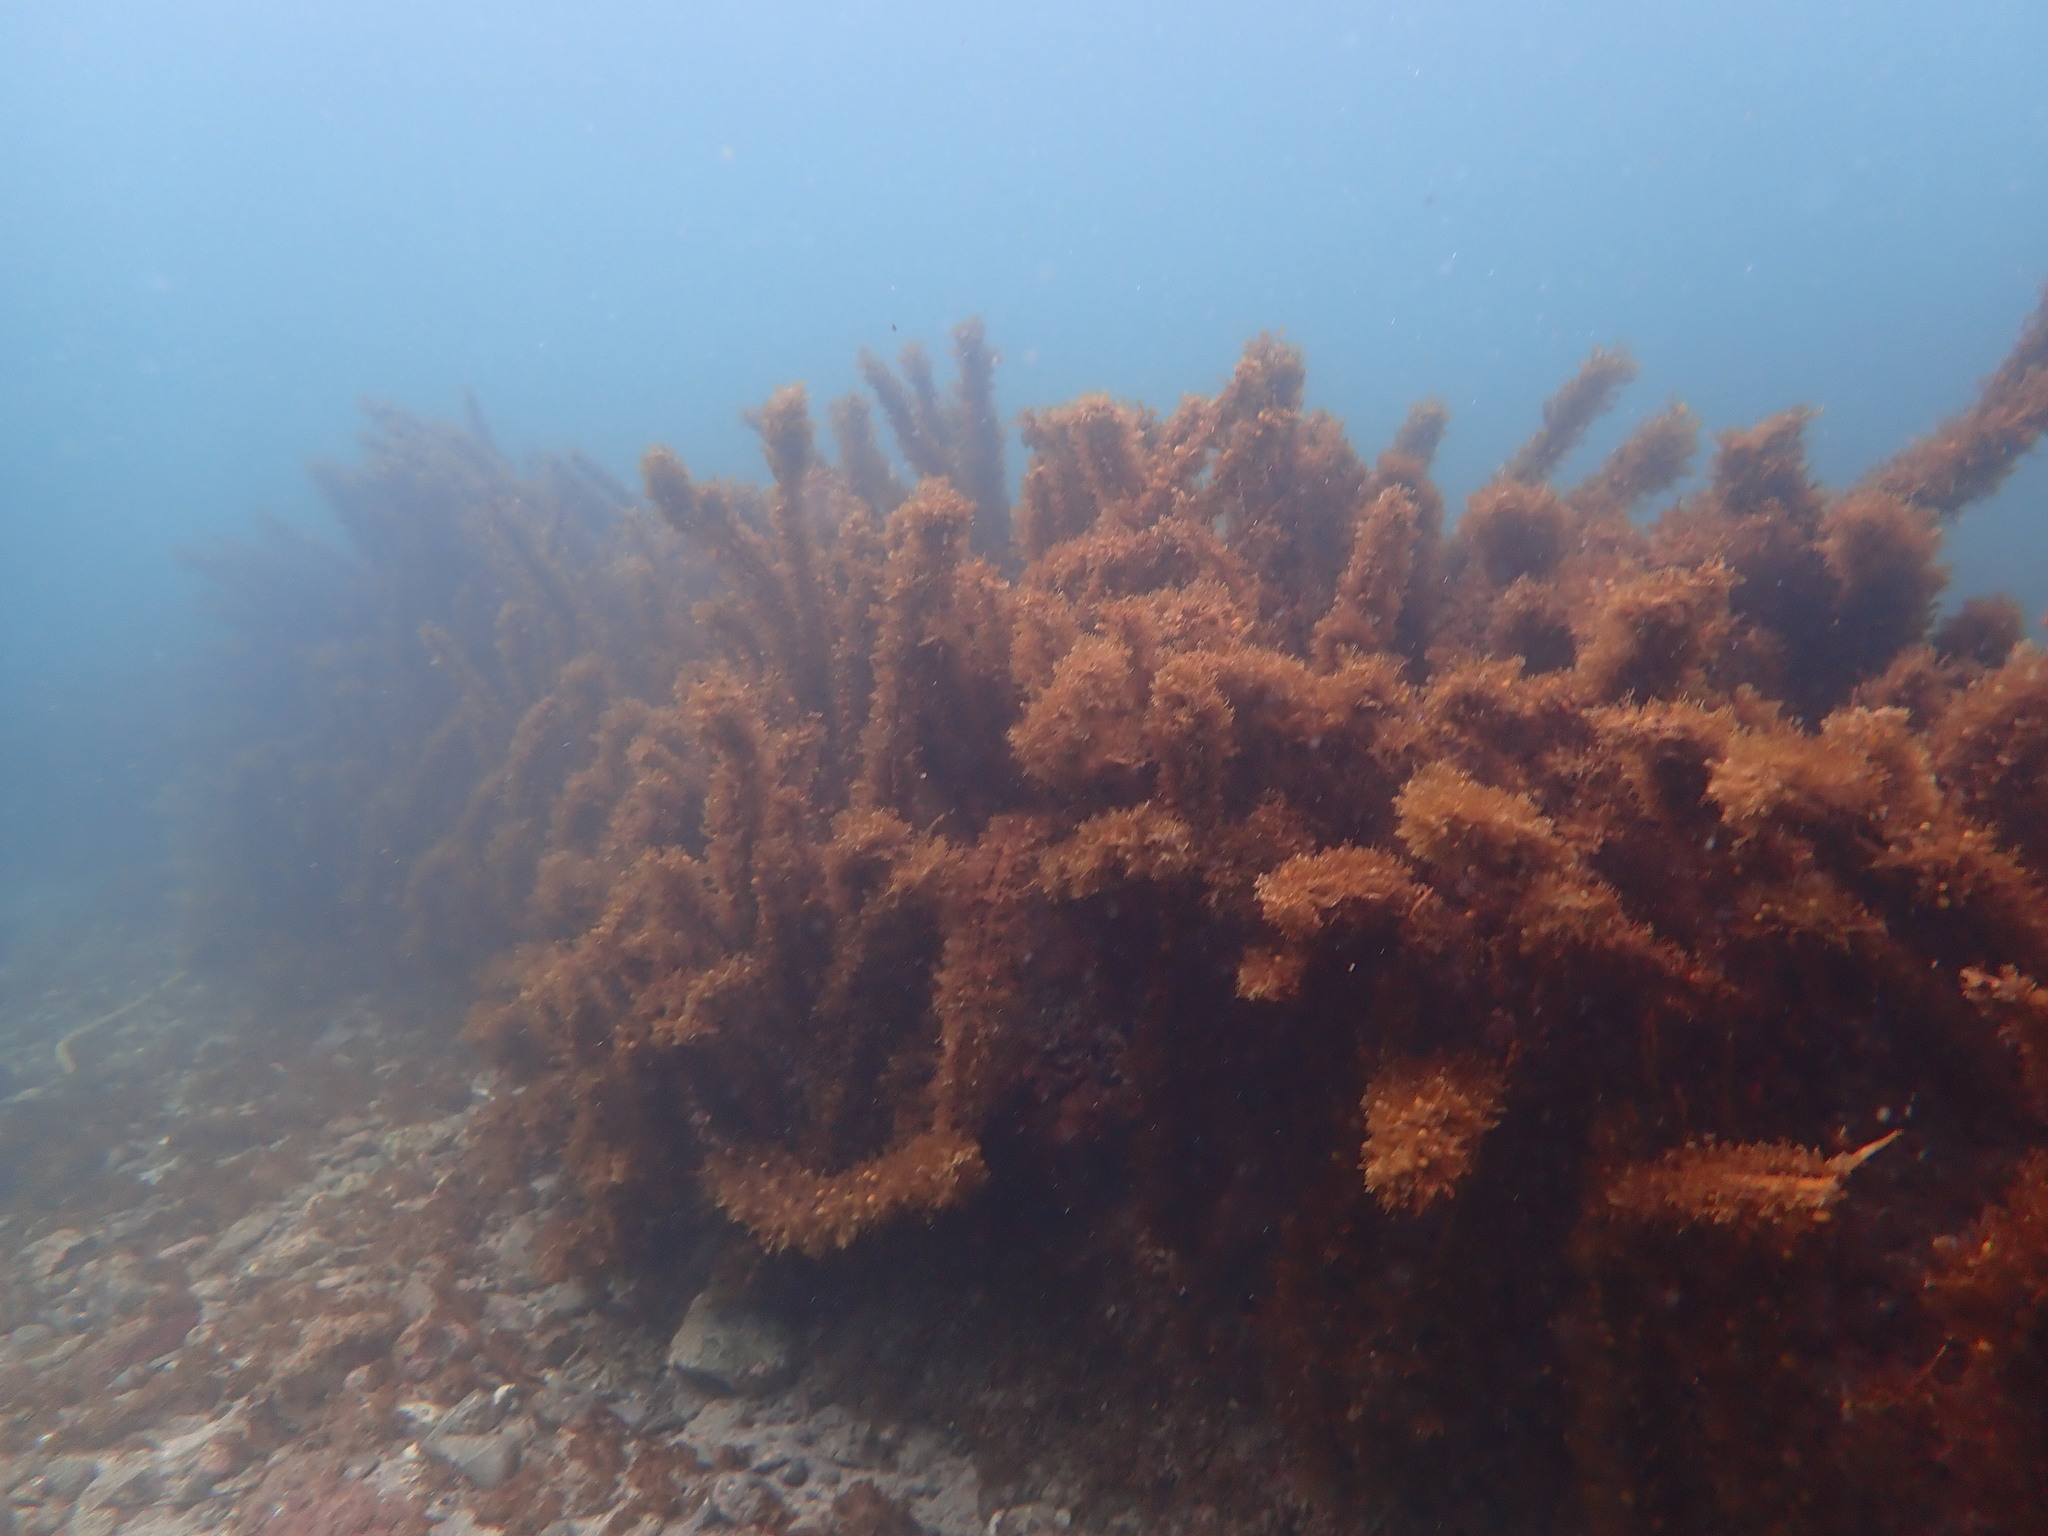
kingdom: Chromista
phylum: Ochrophyta
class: Phaeophyceae
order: Fucales
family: Sargassaceae
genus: Carpophyllum
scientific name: Carpophyllum plumosum
